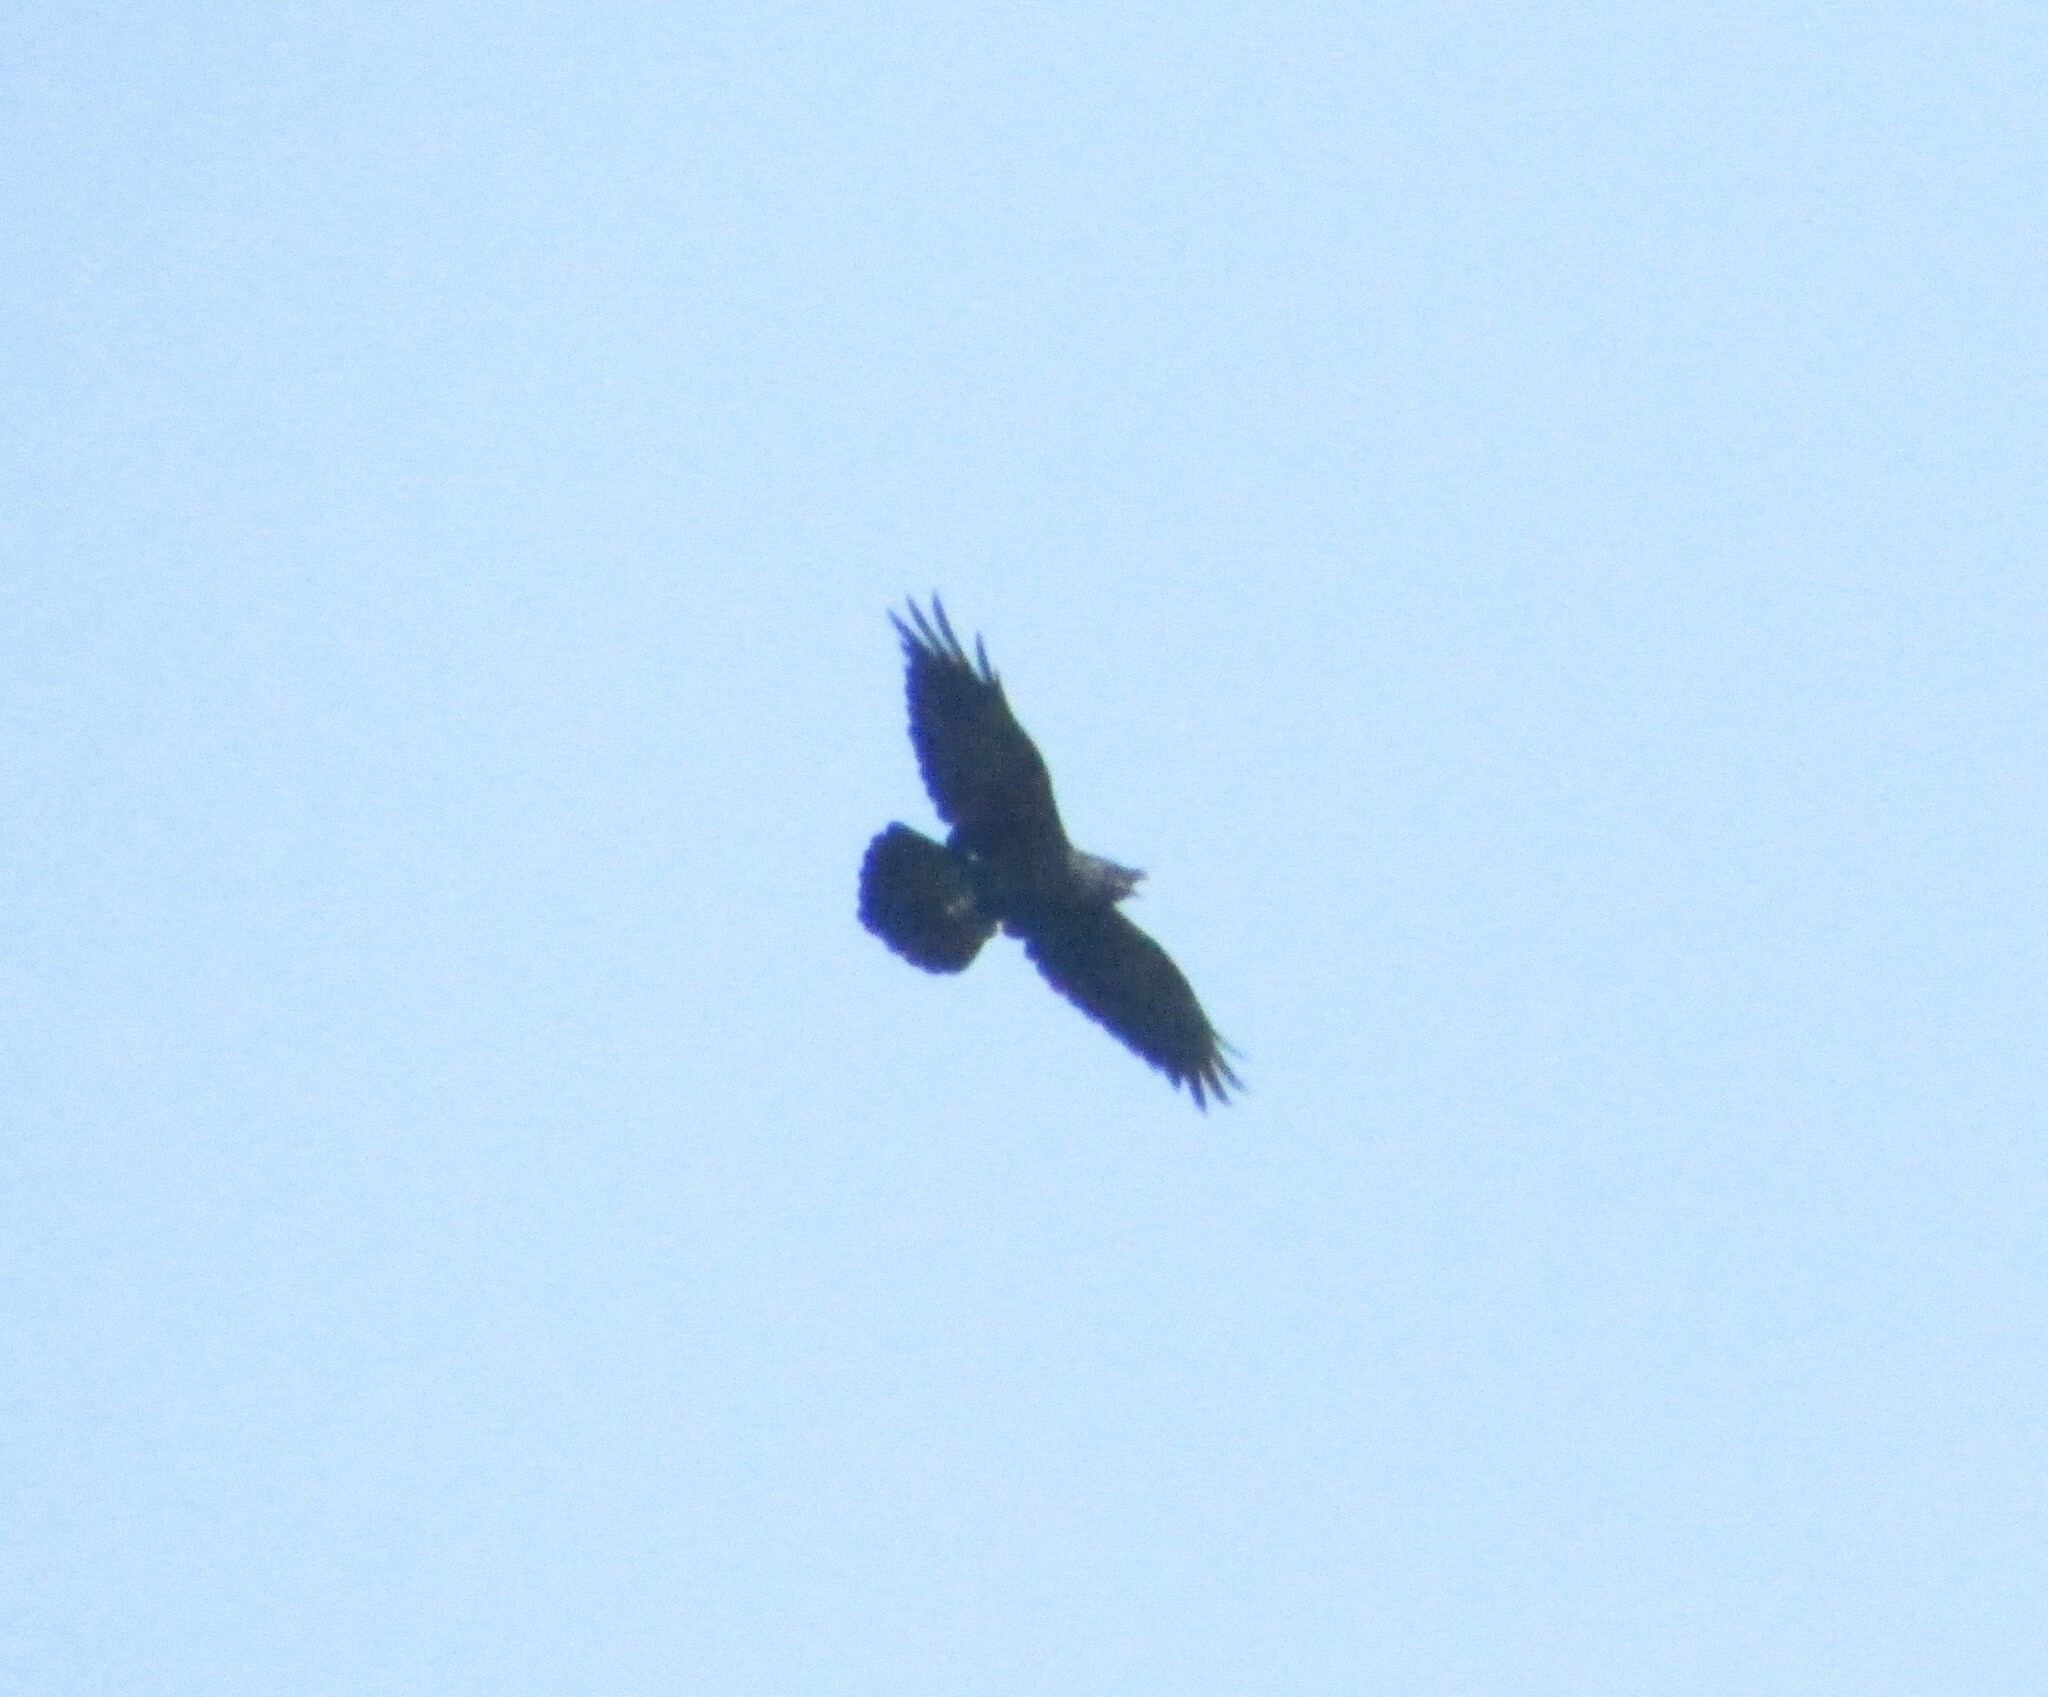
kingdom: Animalia
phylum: Chordata
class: Aves
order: Passeriformes
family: Corvidae
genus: Corvus
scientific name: Corvus corax
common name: Common raven
